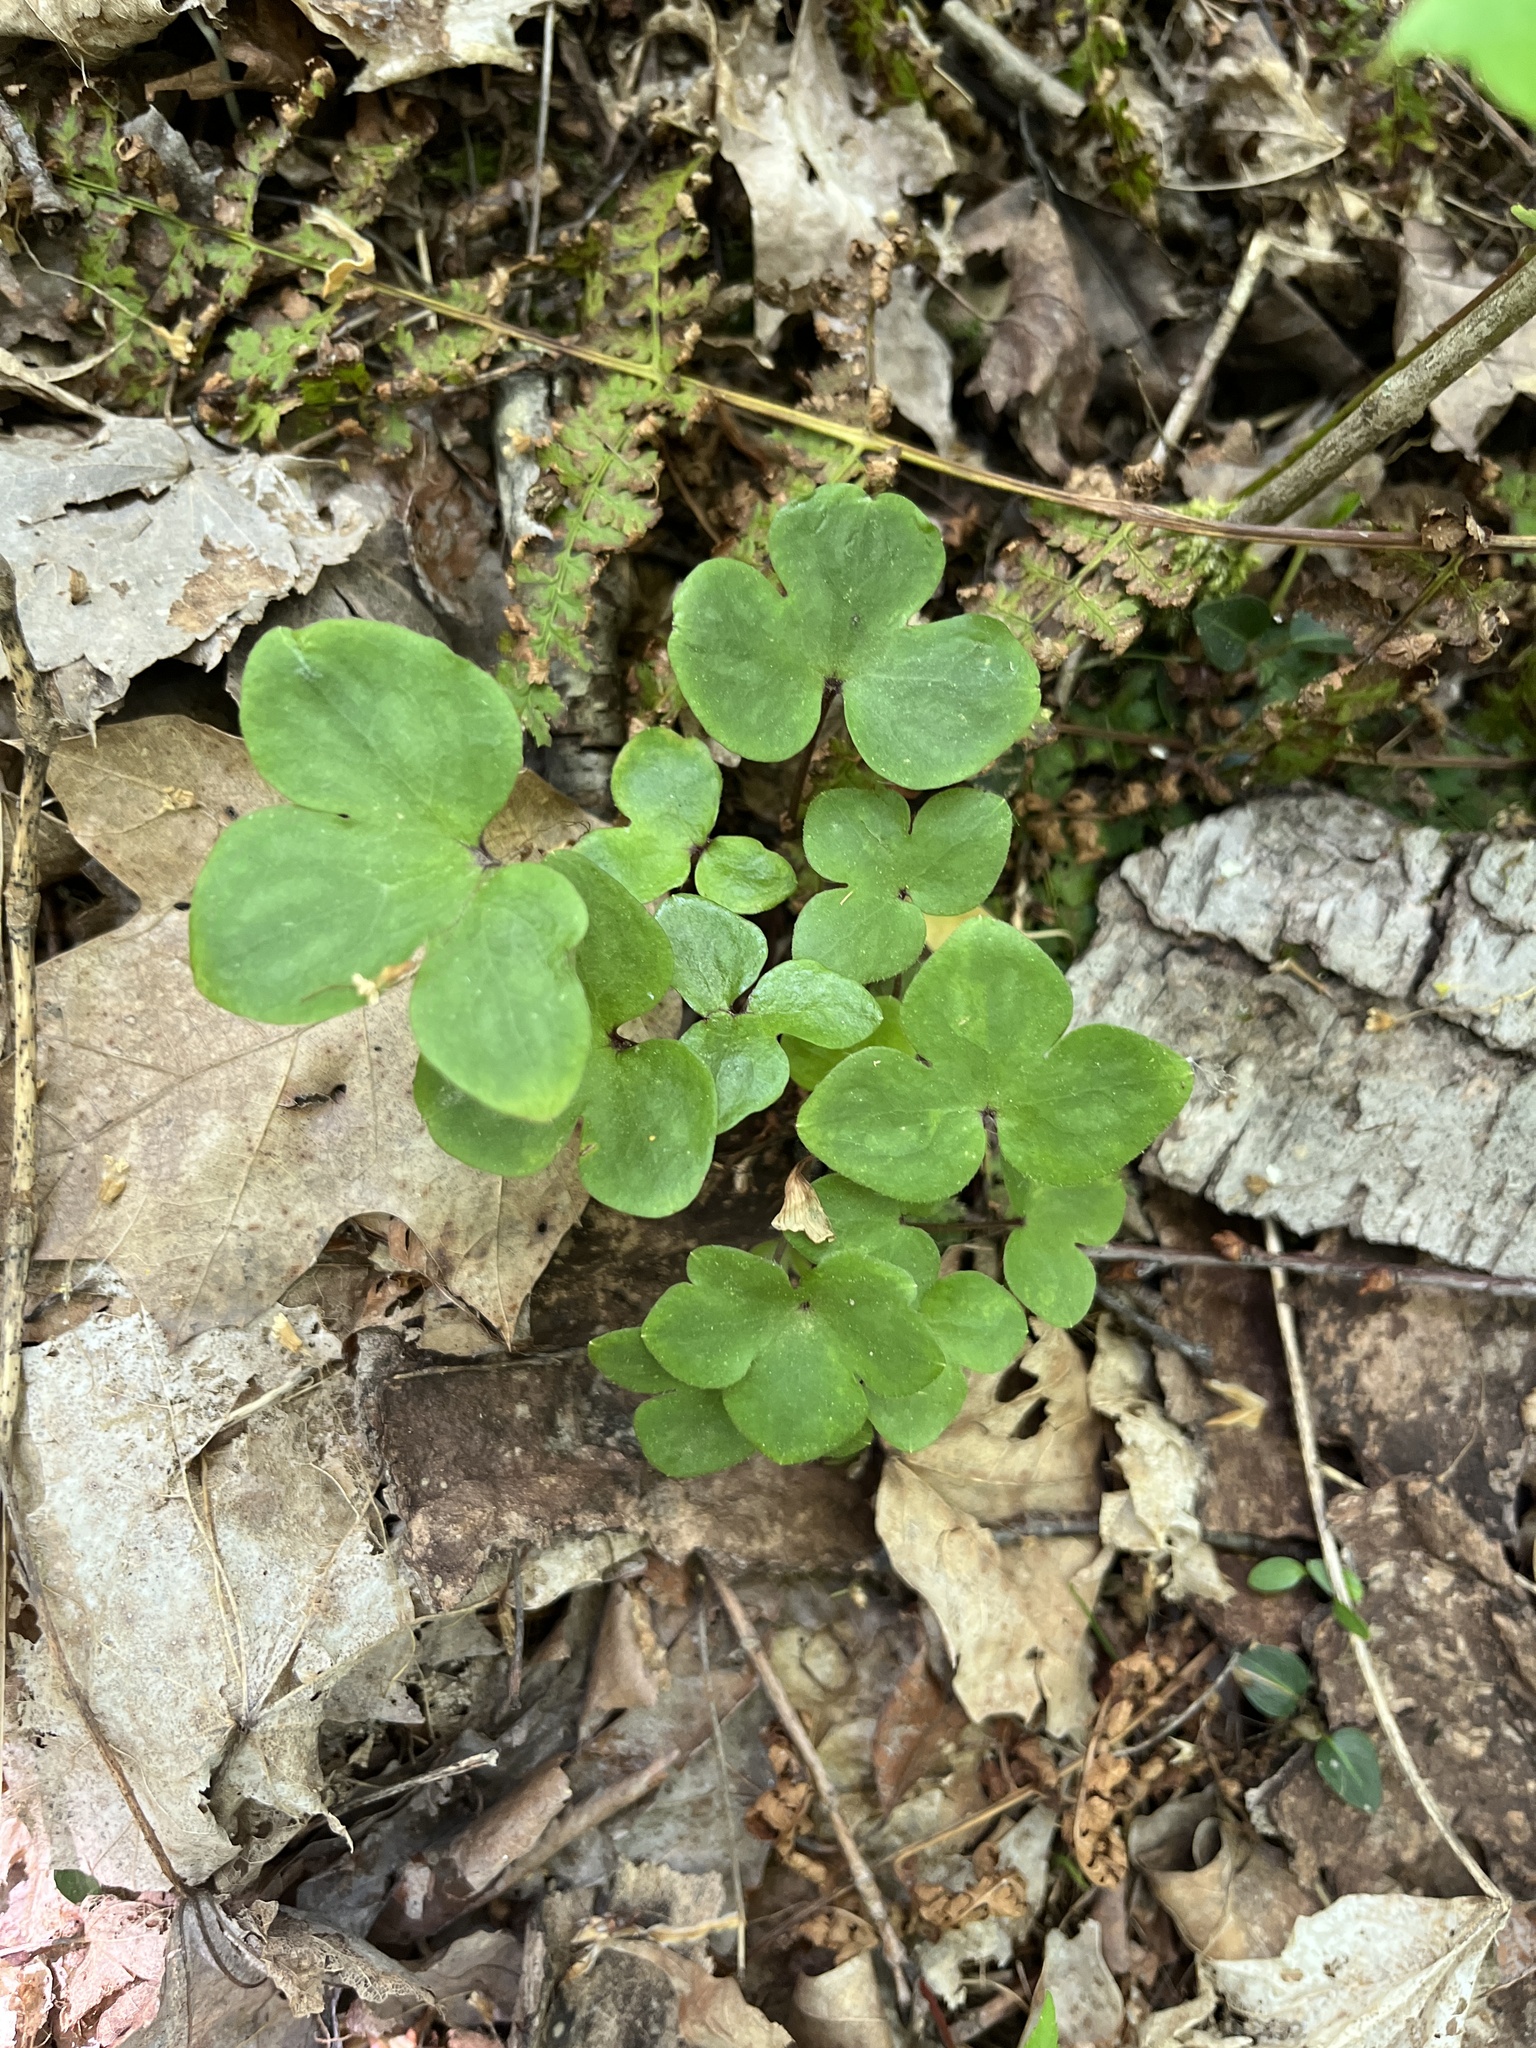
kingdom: Plantae
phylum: Tracheophyta
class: Magnoliopsida
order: Ranunculales
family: Ranunculaceae
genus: Hepatica
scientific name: Hepatica americana
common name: American hepatica
